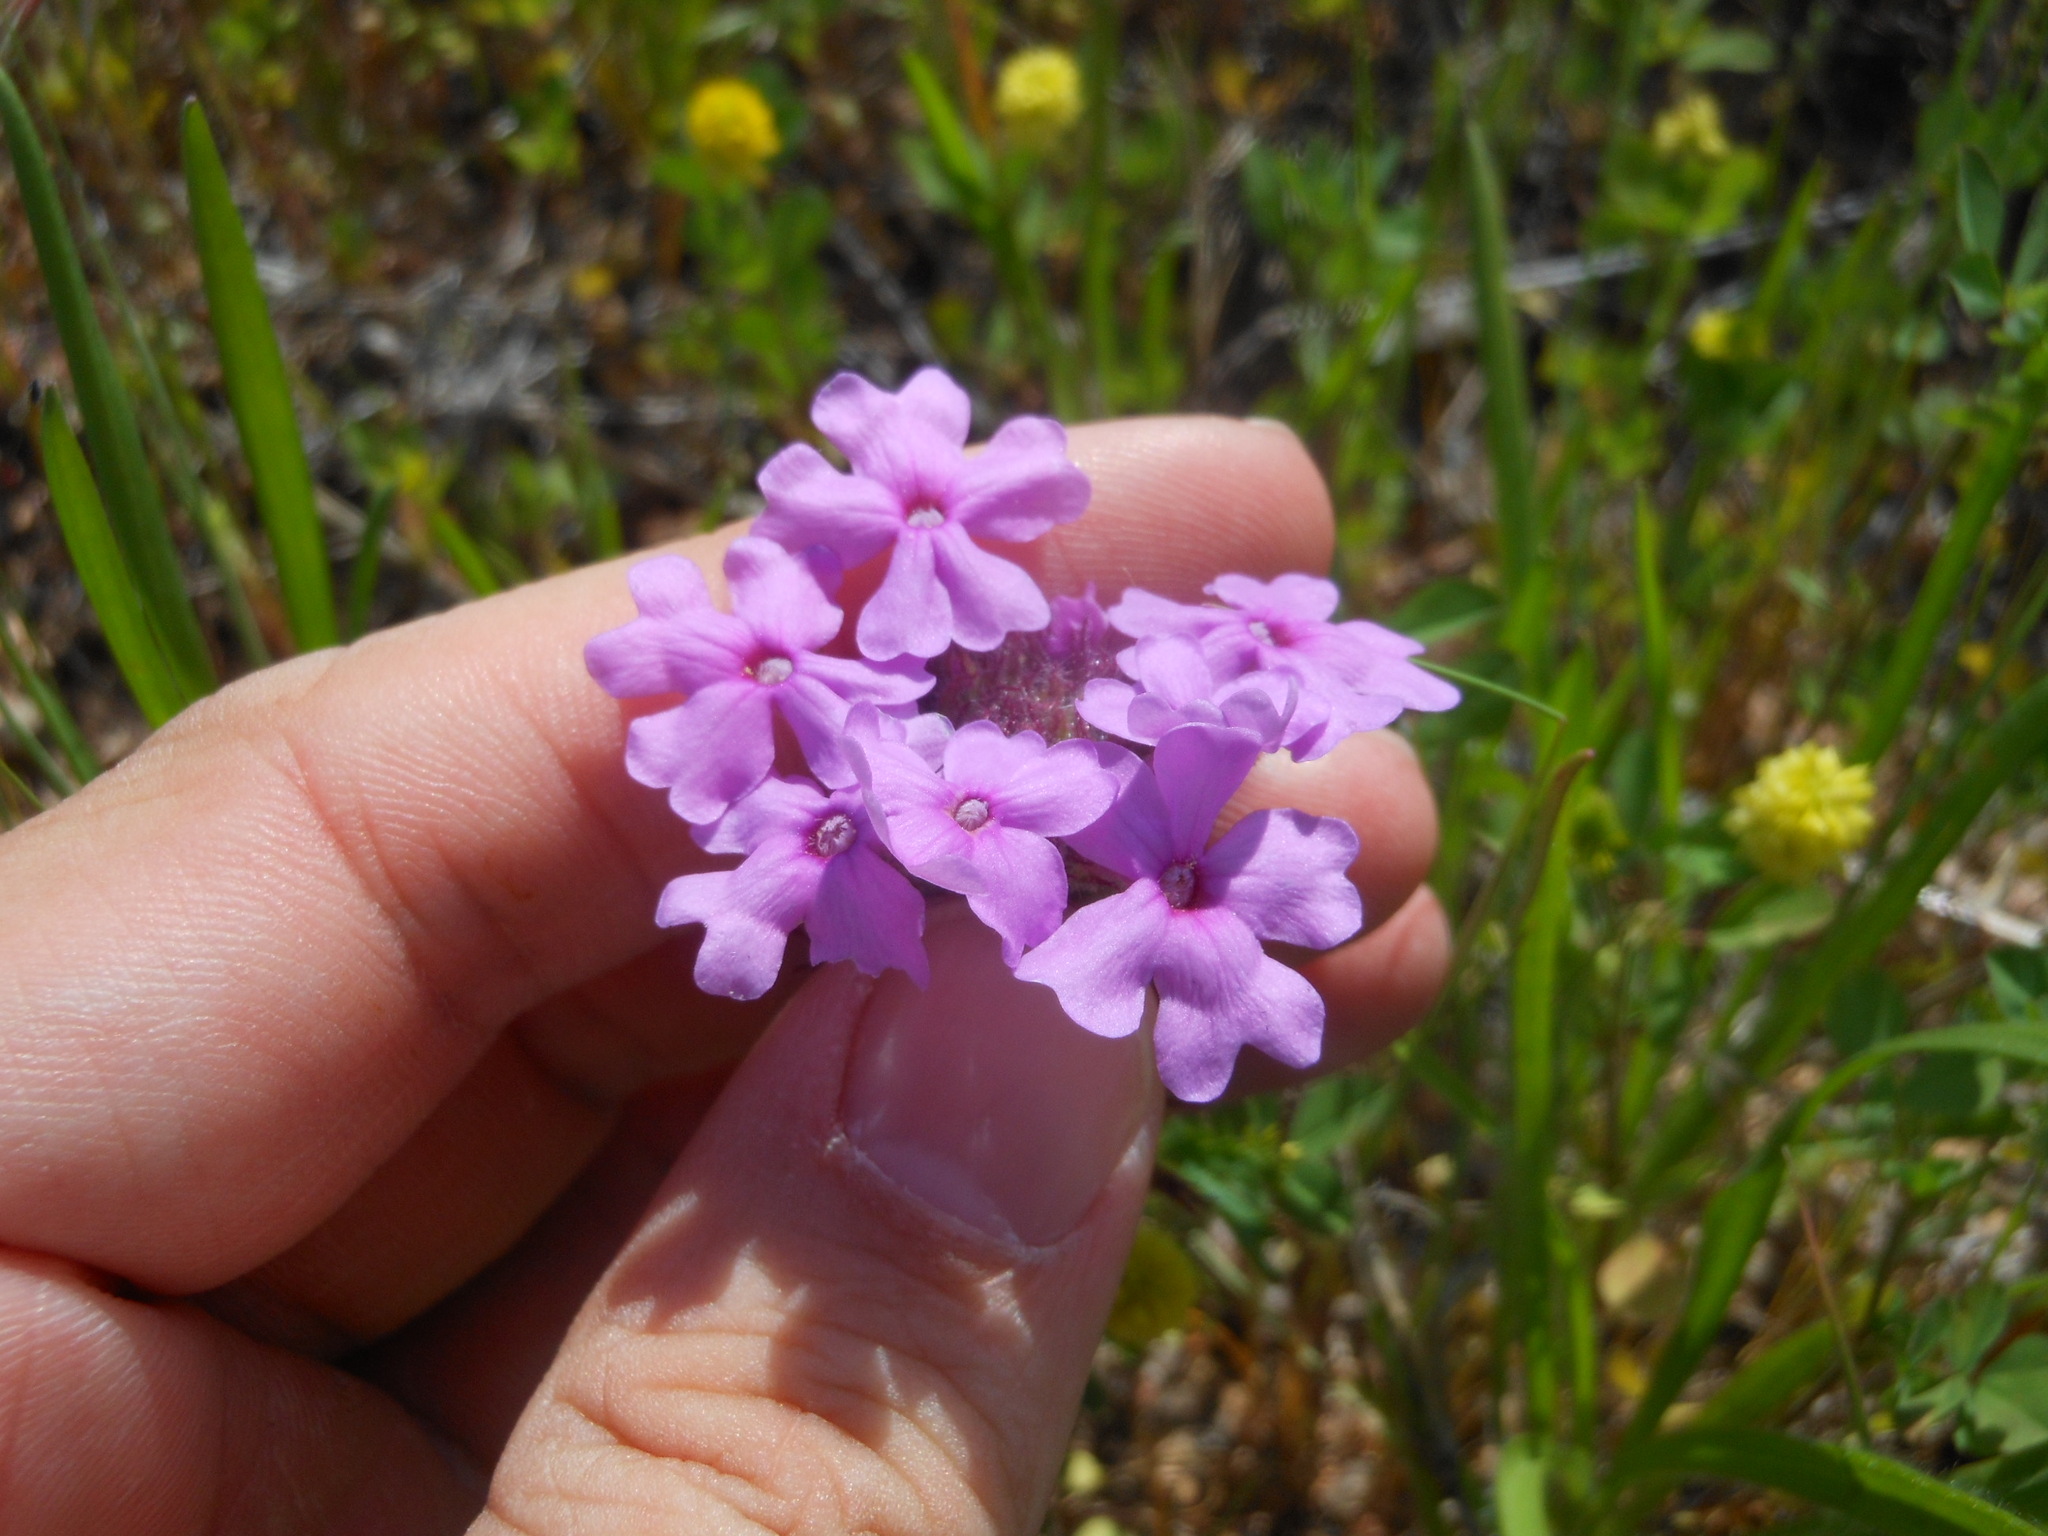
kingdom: Plantae
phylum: Tracheophyta
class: Magnoliopsida
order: Lamiales
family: Verbenaceae
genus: Verbena
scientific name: Verbena bipinnatifida
